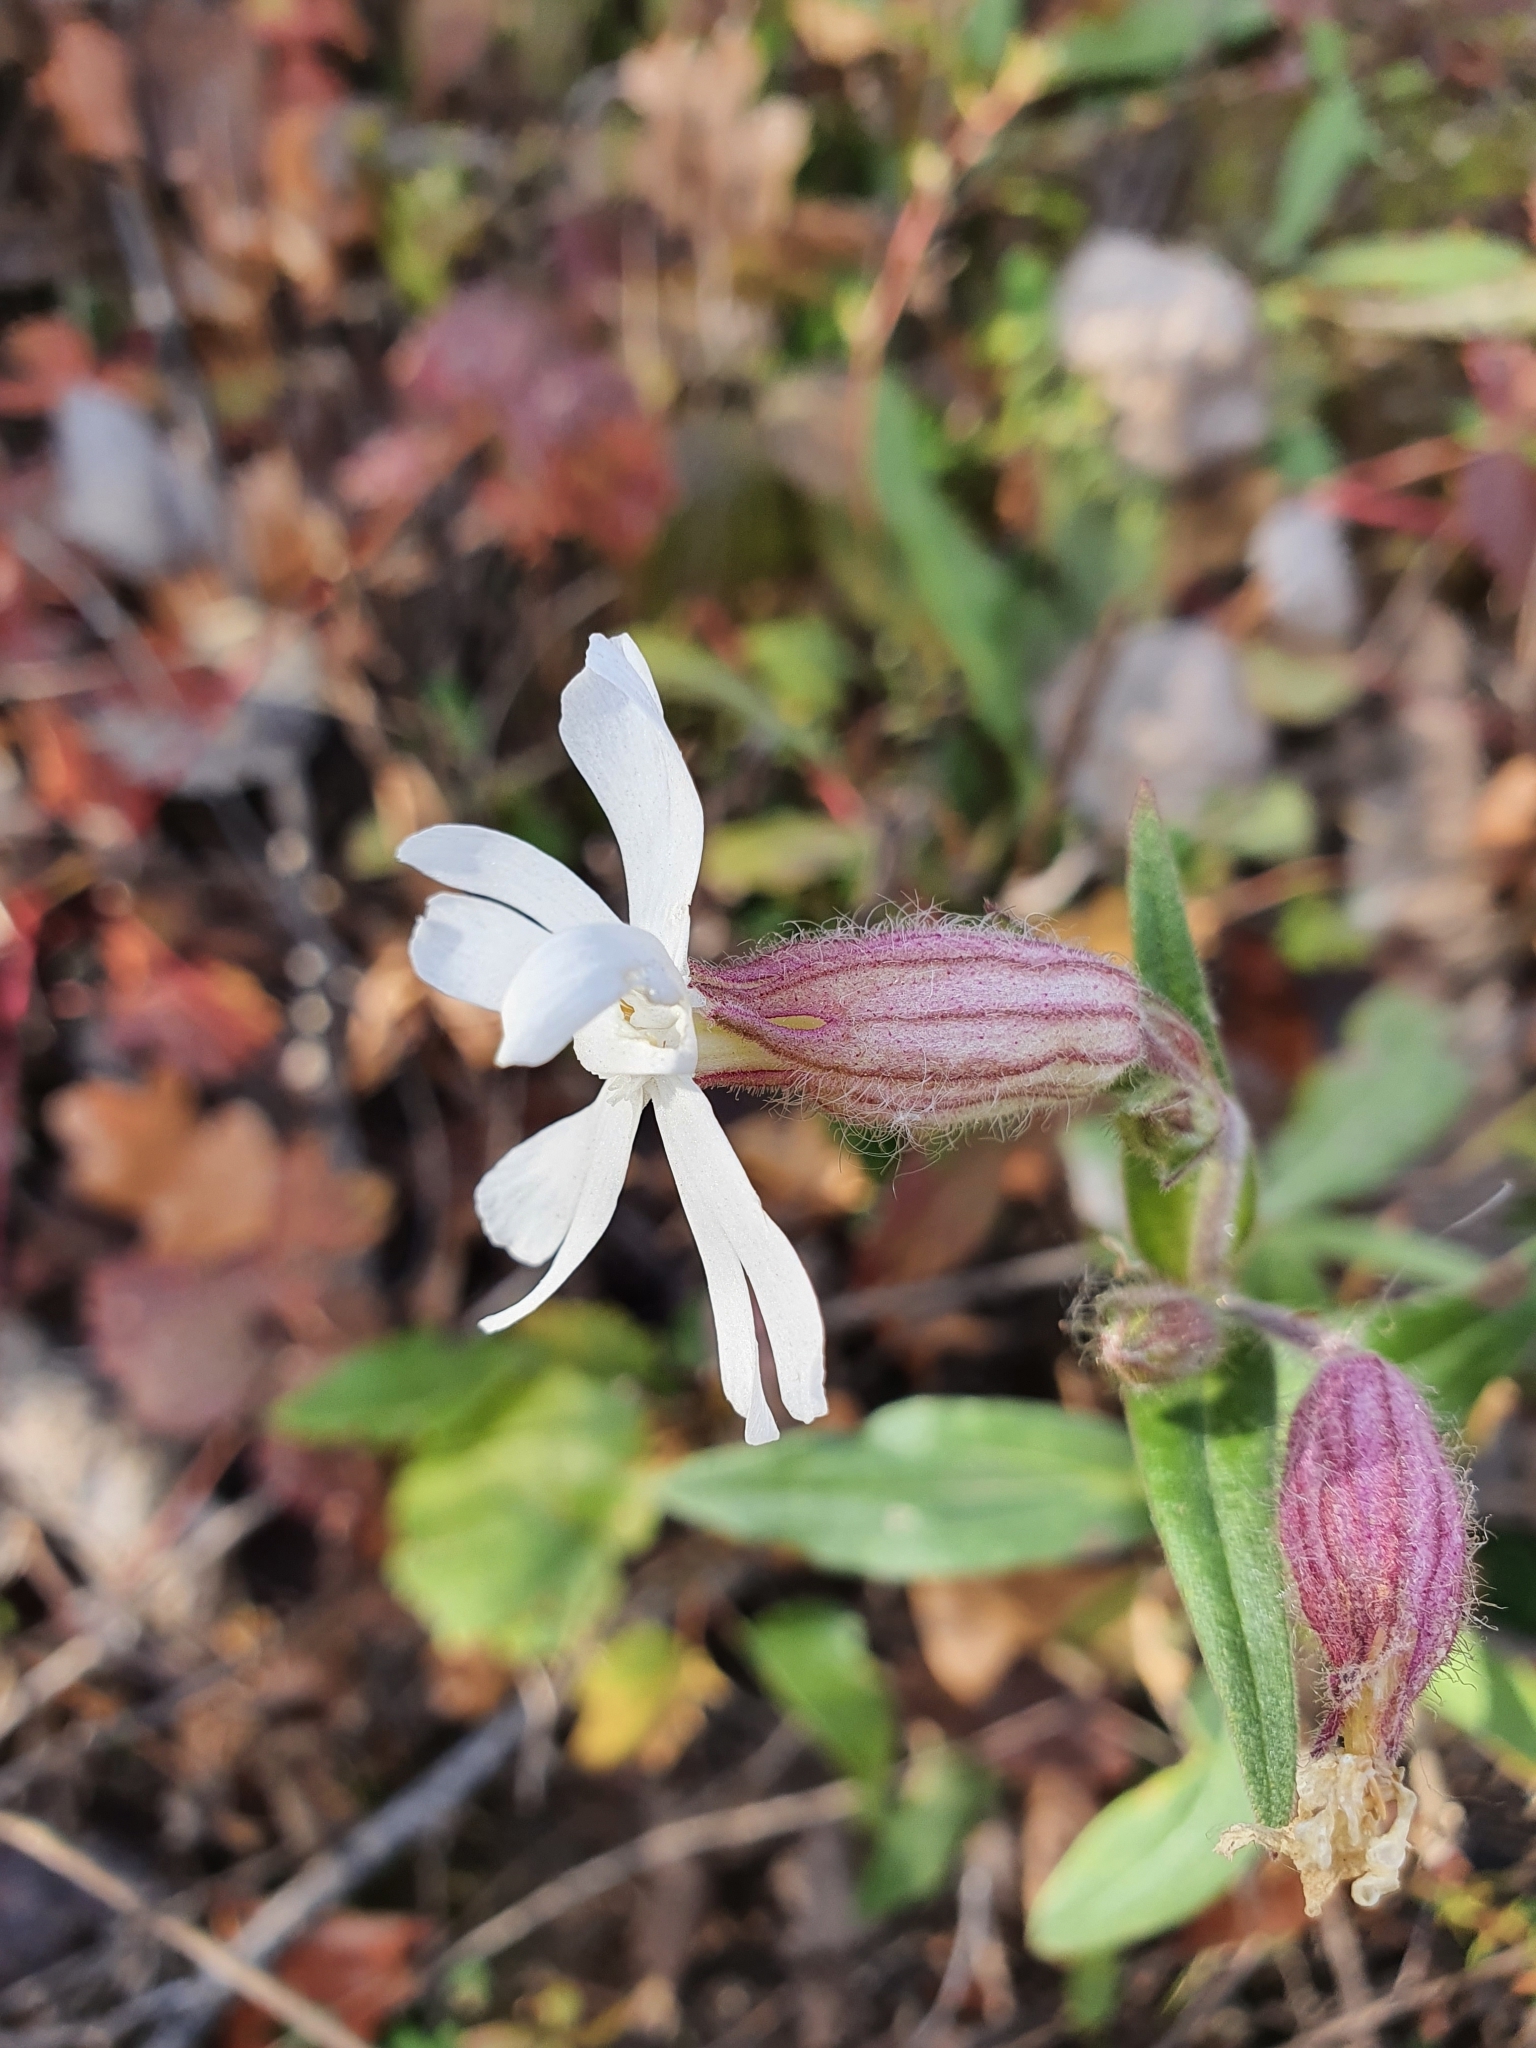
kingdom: Plantae
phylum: Tracheophyta
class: Magnoliopsida
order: Caryophyllales
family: Caryophyllaceae
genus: Silene
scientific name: Silene latifolia
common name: White campion
